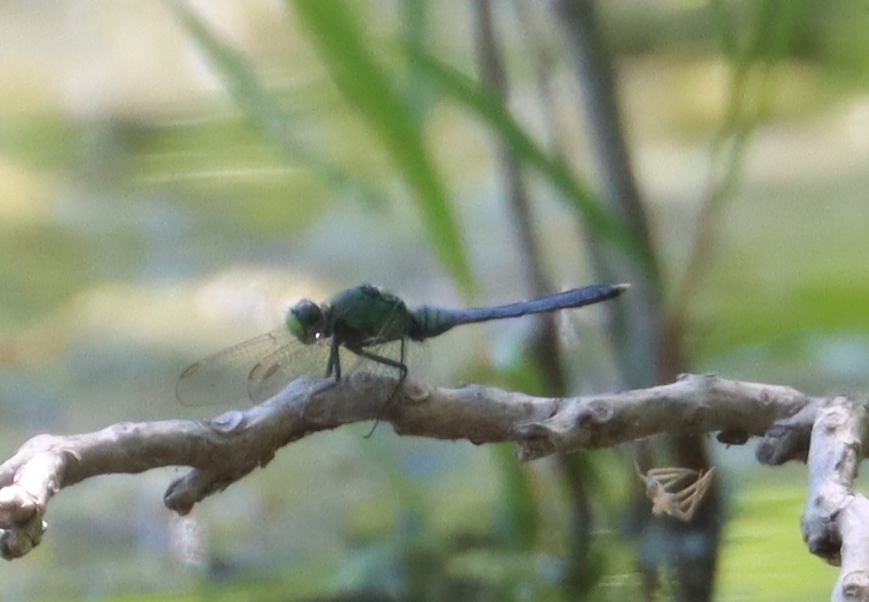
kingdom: Animalia
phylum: Arthropoda
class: Insecta
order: Odonata
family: Libellulidae
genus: Erythemis
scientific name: Erythemis simplicicollis
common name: Eastern pondhawk
